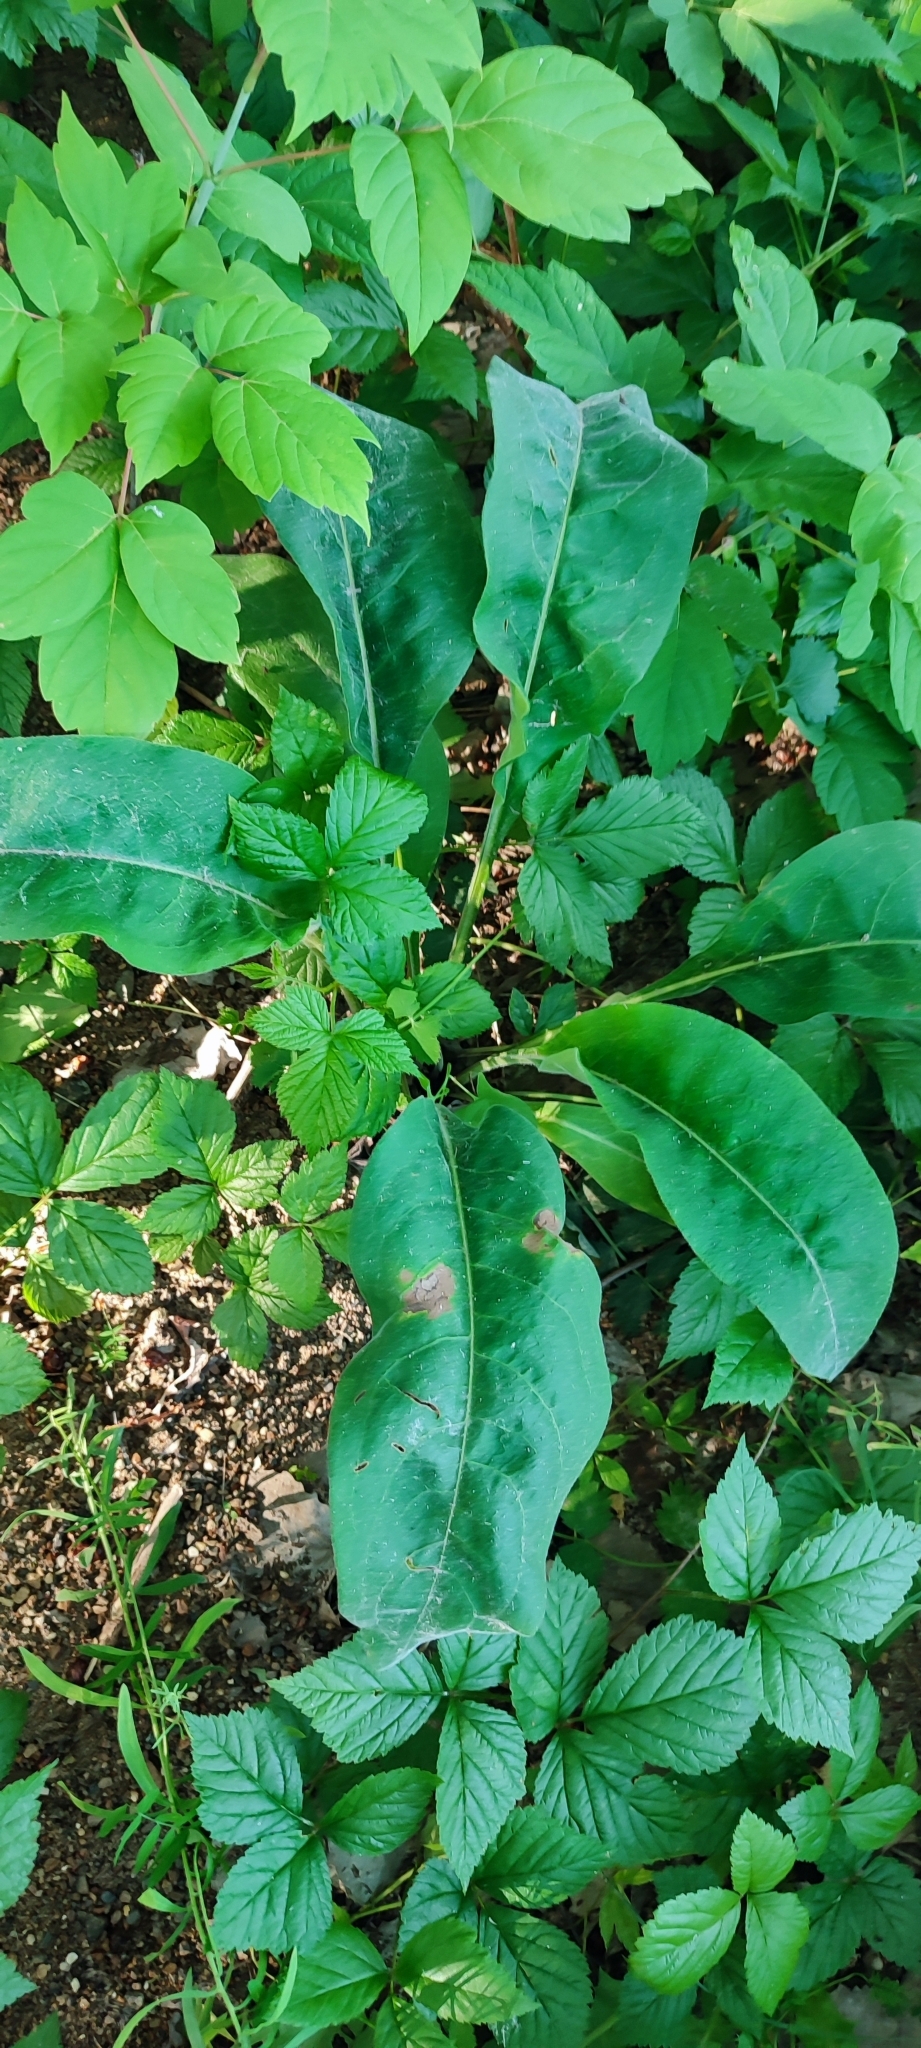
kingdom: Plantae
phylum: Tracheophyta
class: Magnoliopsida
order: Boraginales
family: Boraginaceae
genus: Pulmonaria
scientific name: Pulmonaria mollis
